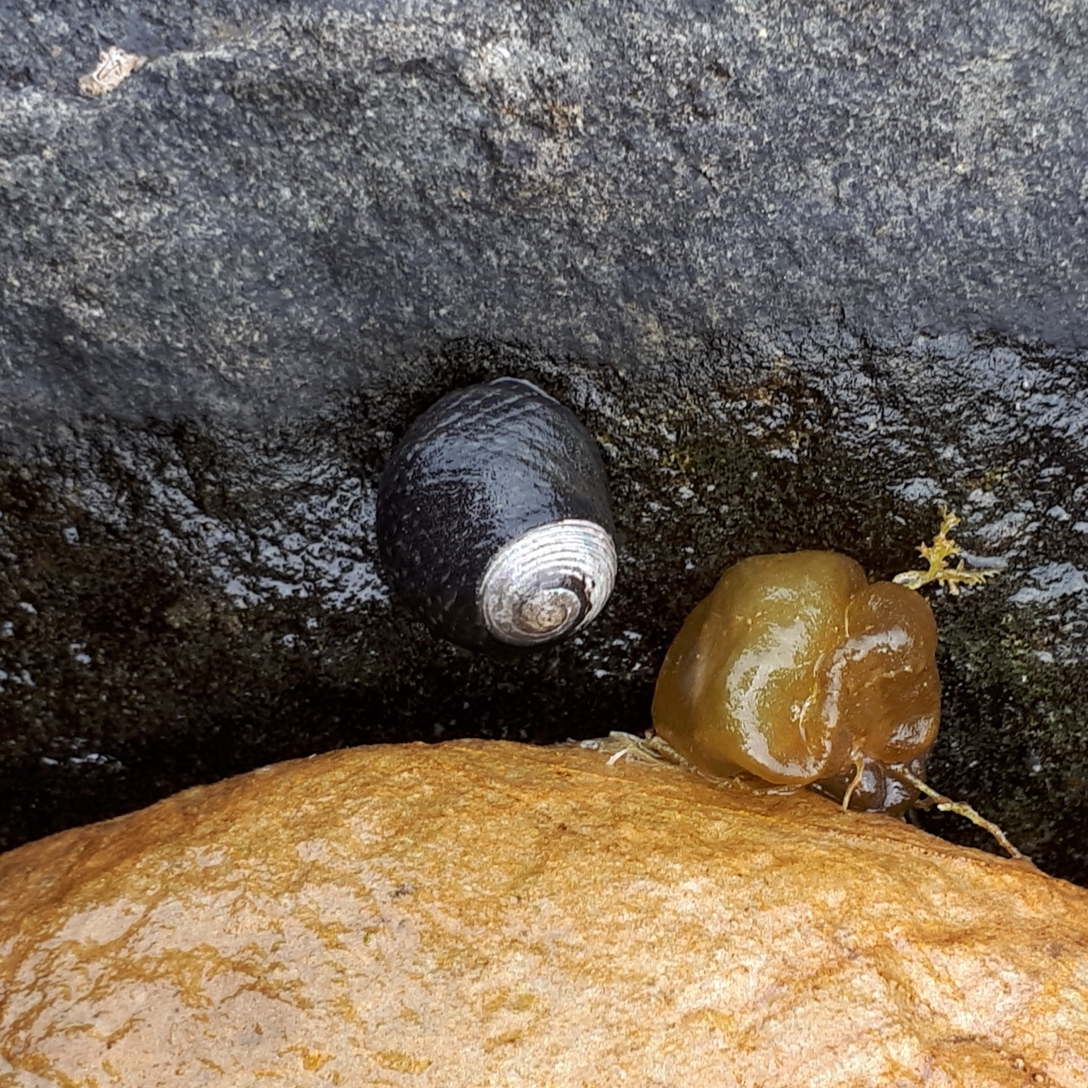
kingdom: Animalia
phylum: Mollusca
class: Gastropoda
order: Trochida
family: Trochidae
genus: Diloma
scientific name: Diloma zelandicum
